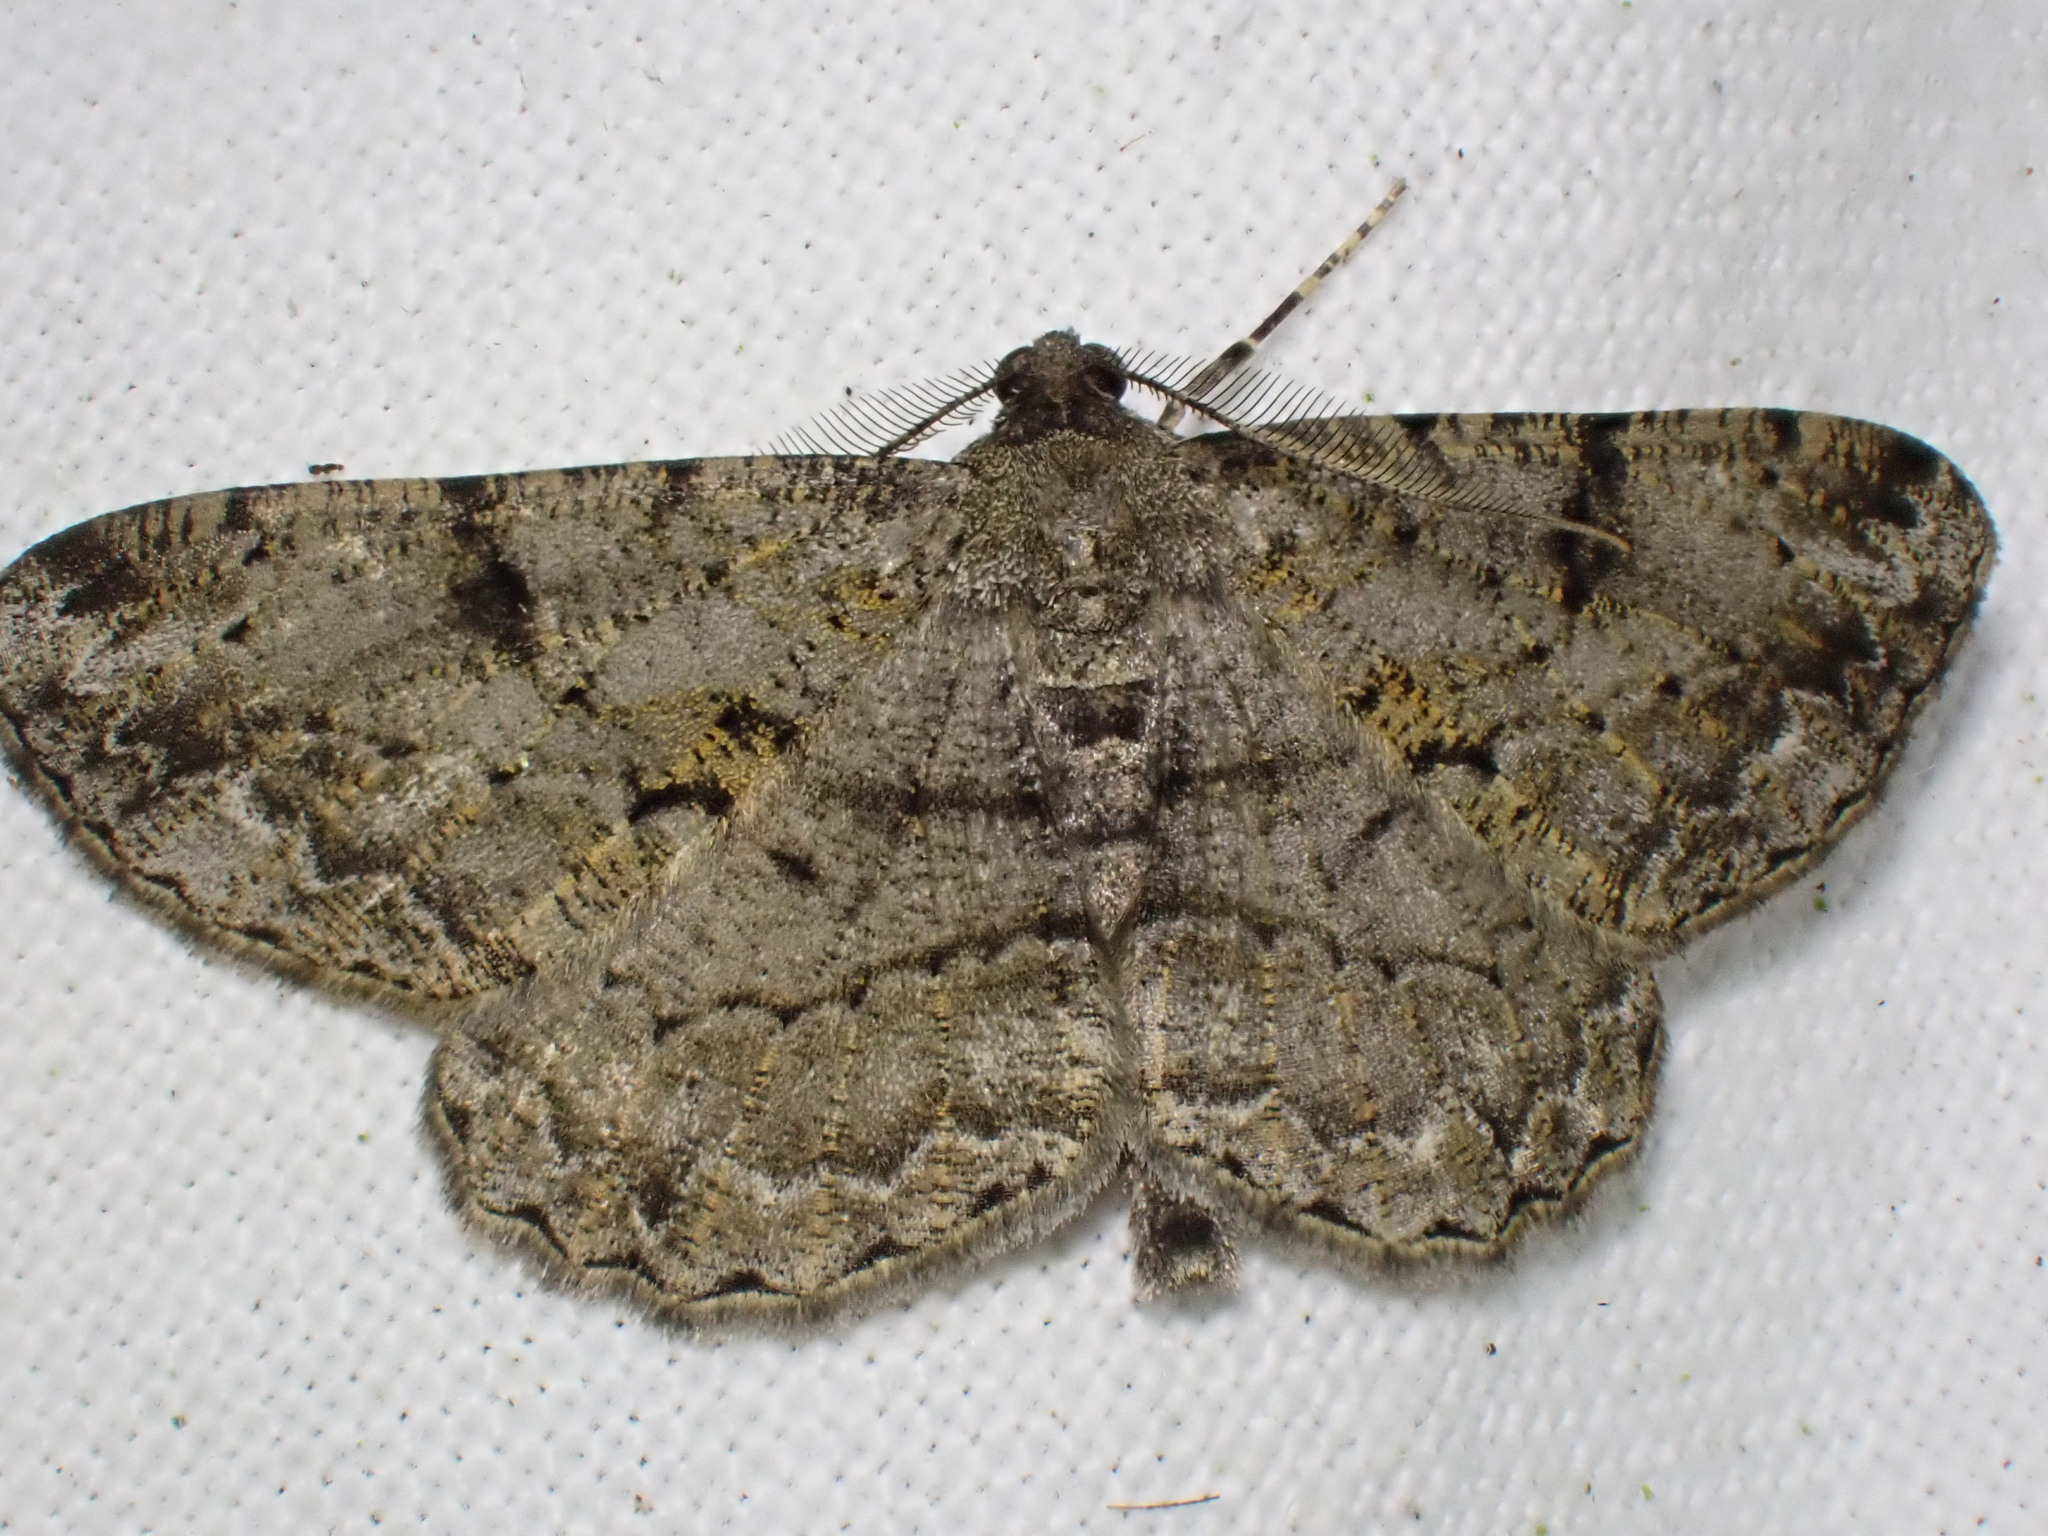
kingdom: Animalia
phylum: Arthropoda
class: Insecta
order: Lepidoptera
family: Geometridae
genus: Peribatodes
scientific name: Peribatodes rhomboidaria
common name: Willow beauty
